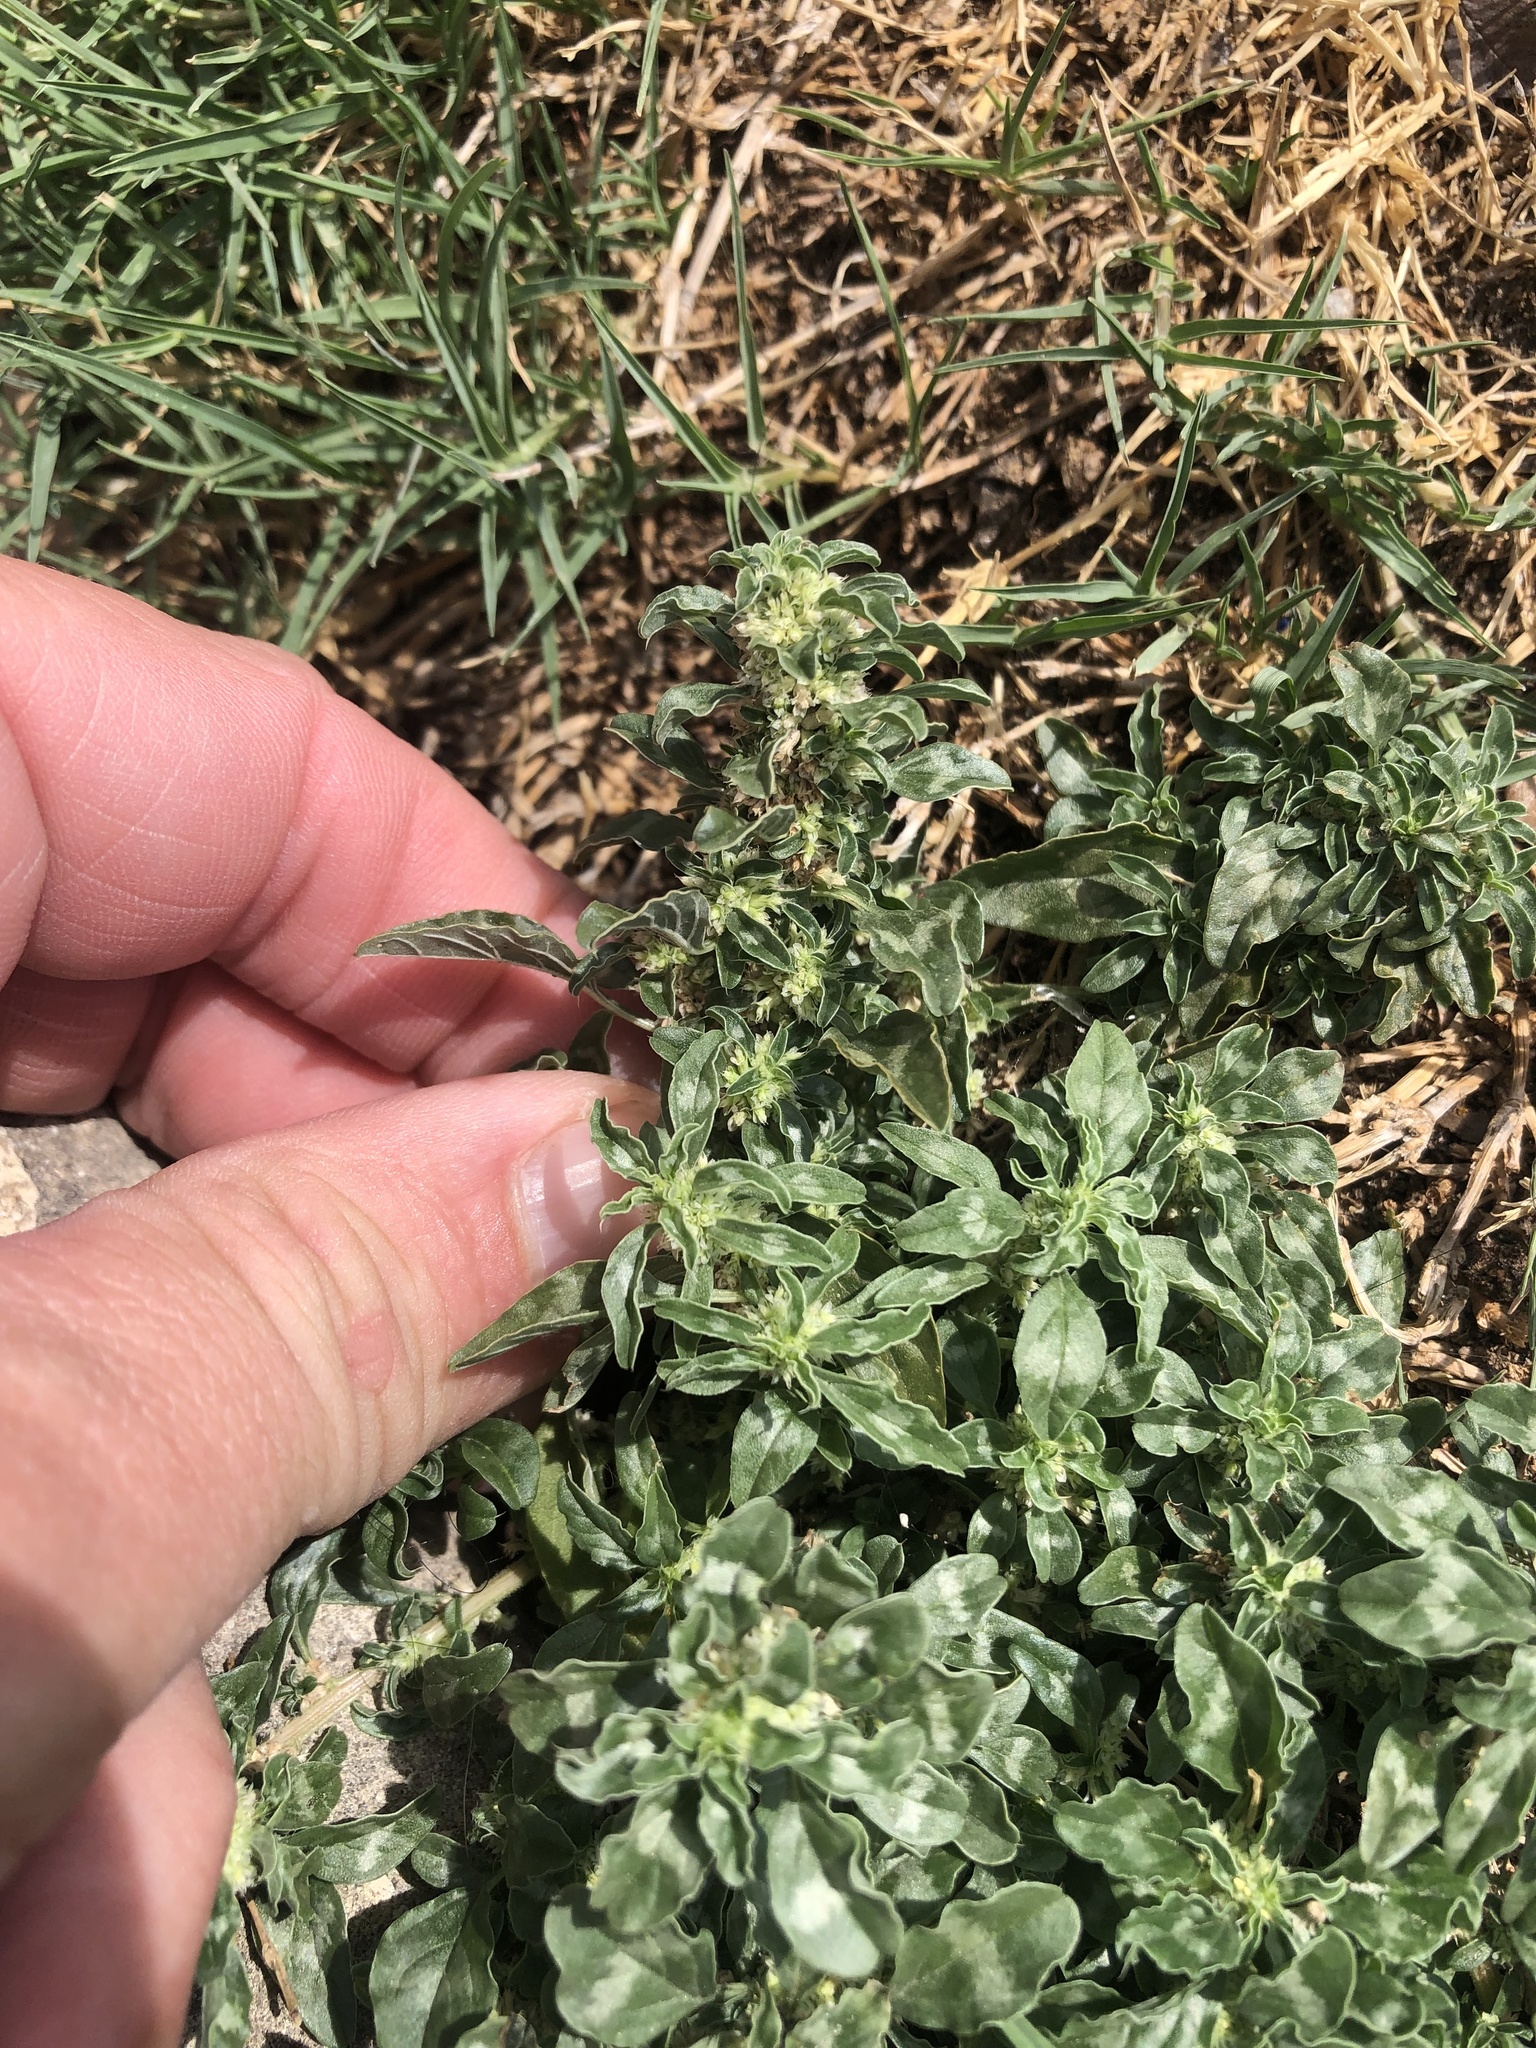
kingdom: Plantae
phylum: Tracheophyta
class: Magnoliopsida
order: Caryophyllales
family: Amaranthaceae
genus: Amaranthus
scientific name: Amaranthus polygonoides
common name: Tropical amaranth
